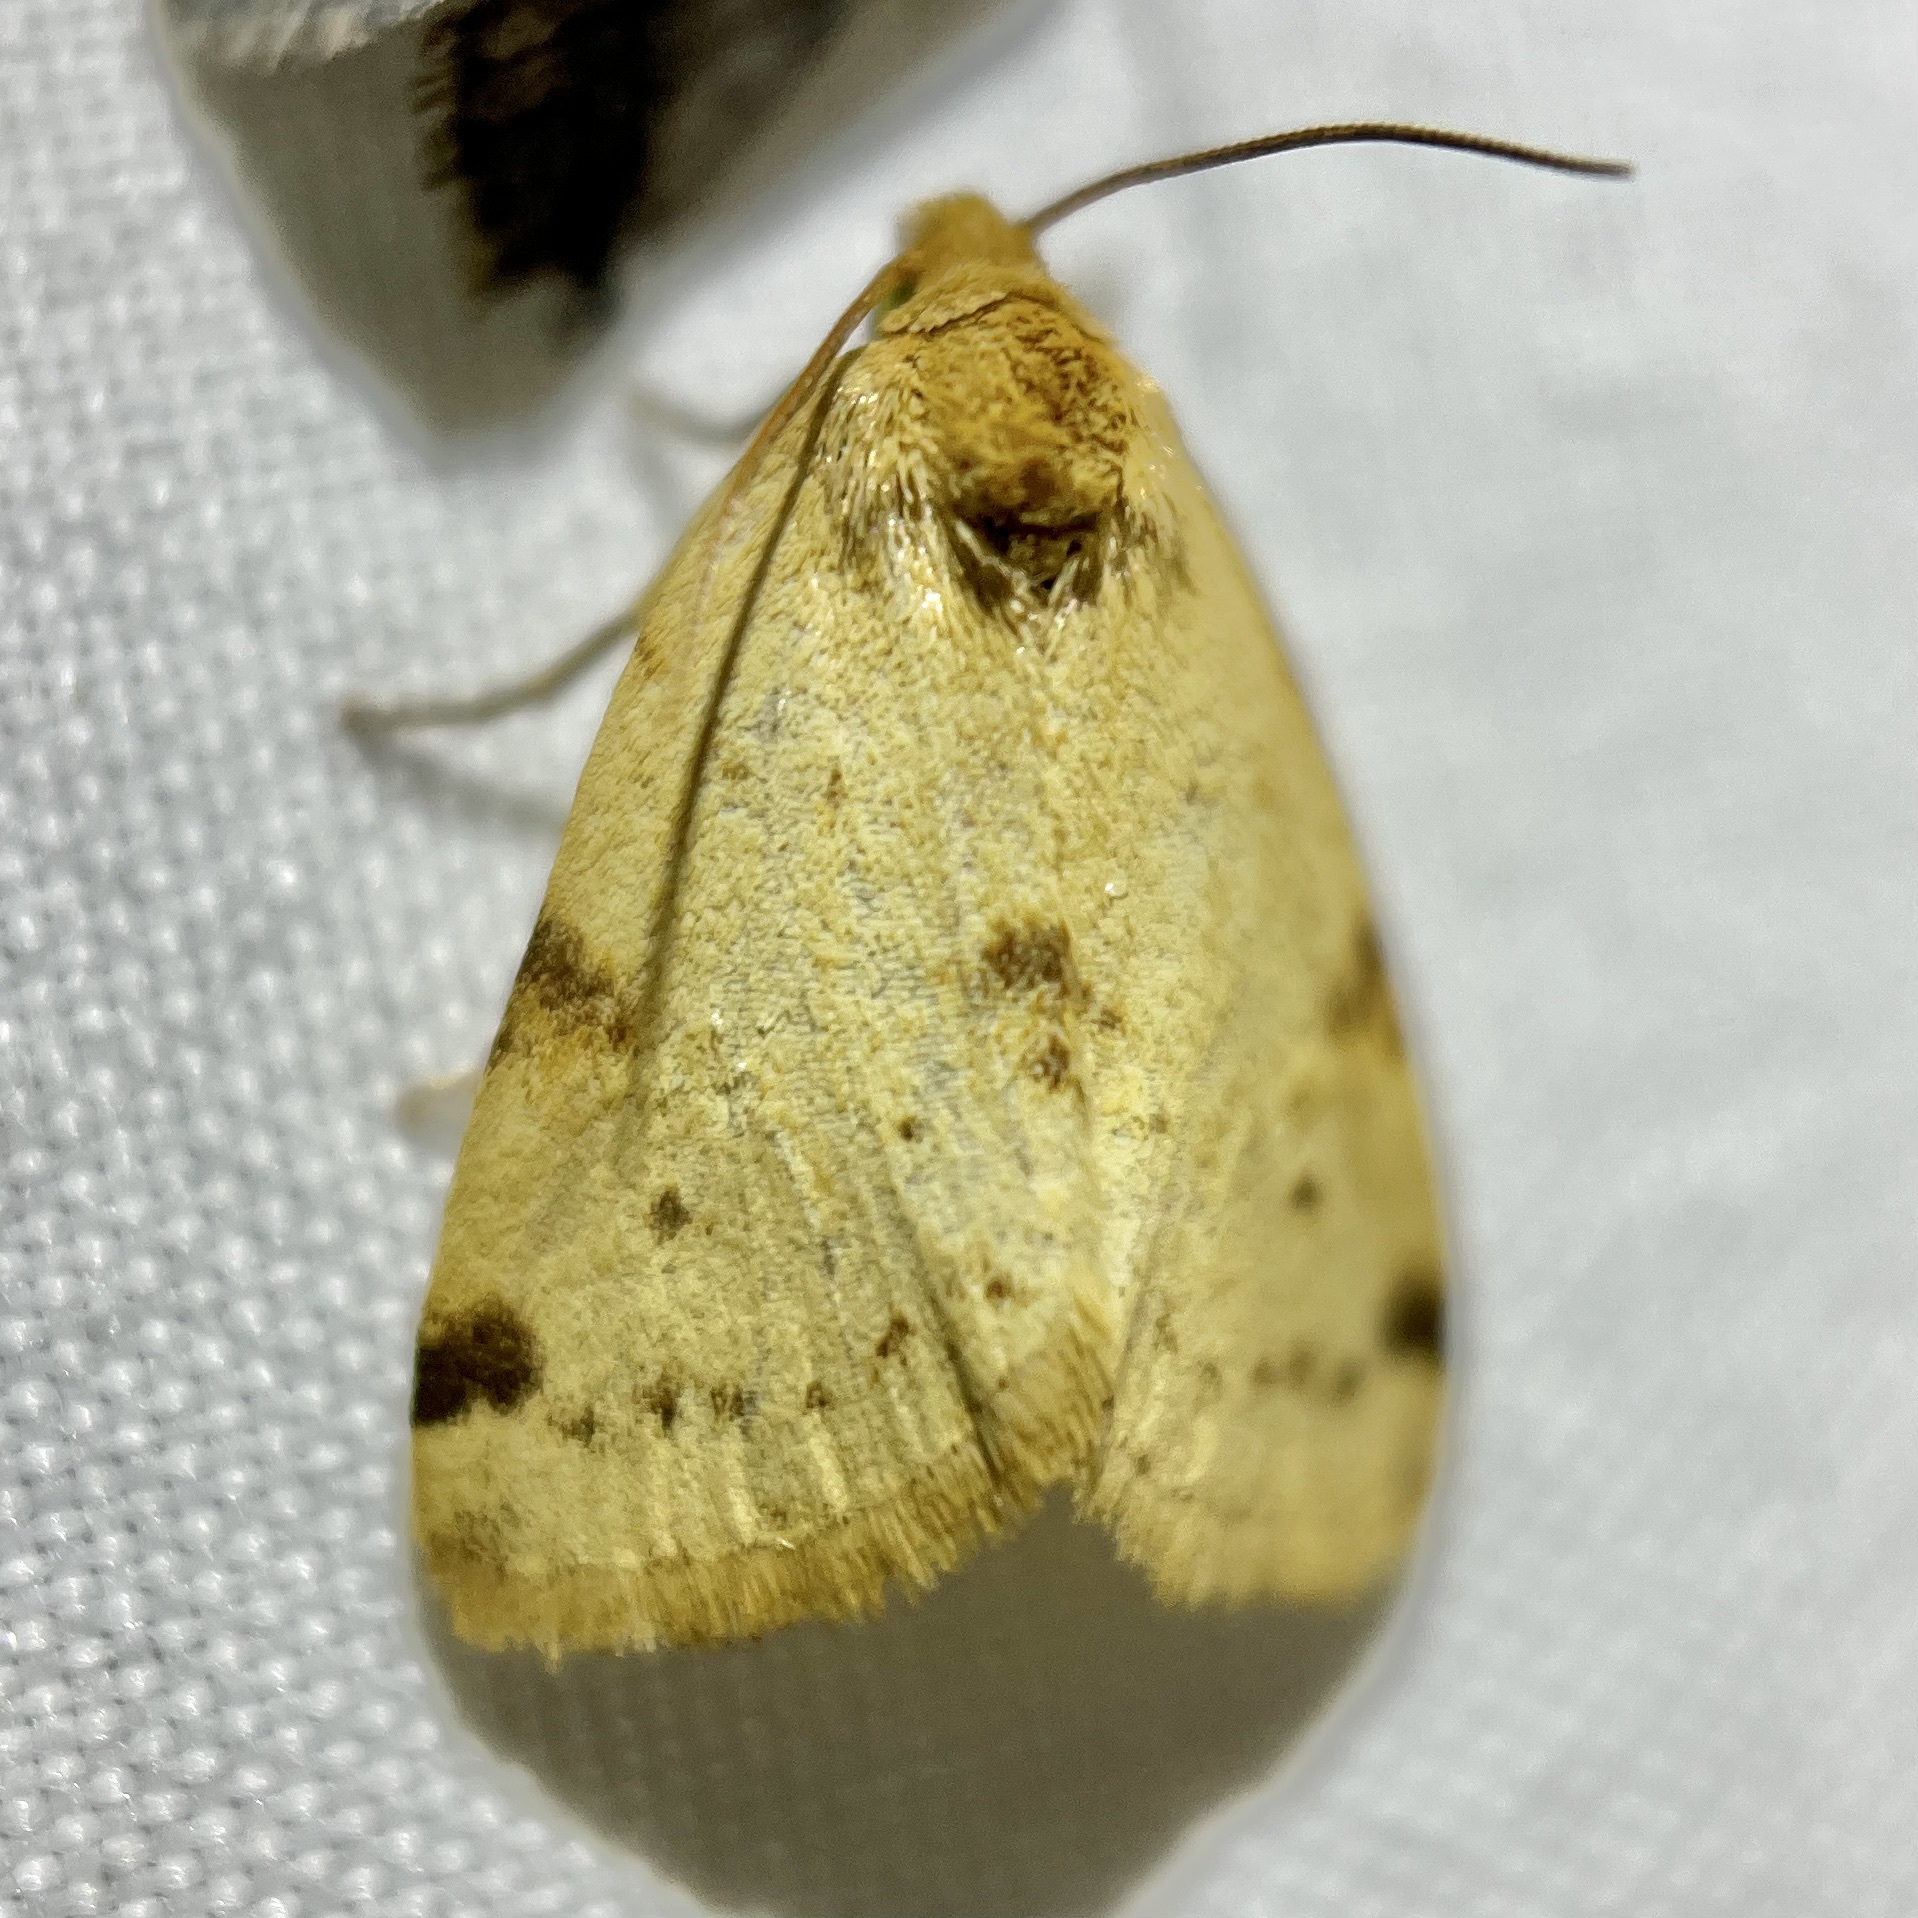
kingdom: Animalia
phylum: Arthropoda
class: Insecta
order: Lepidoptera
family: Noctuidae
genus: Azenia
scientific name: Azenia edentata
